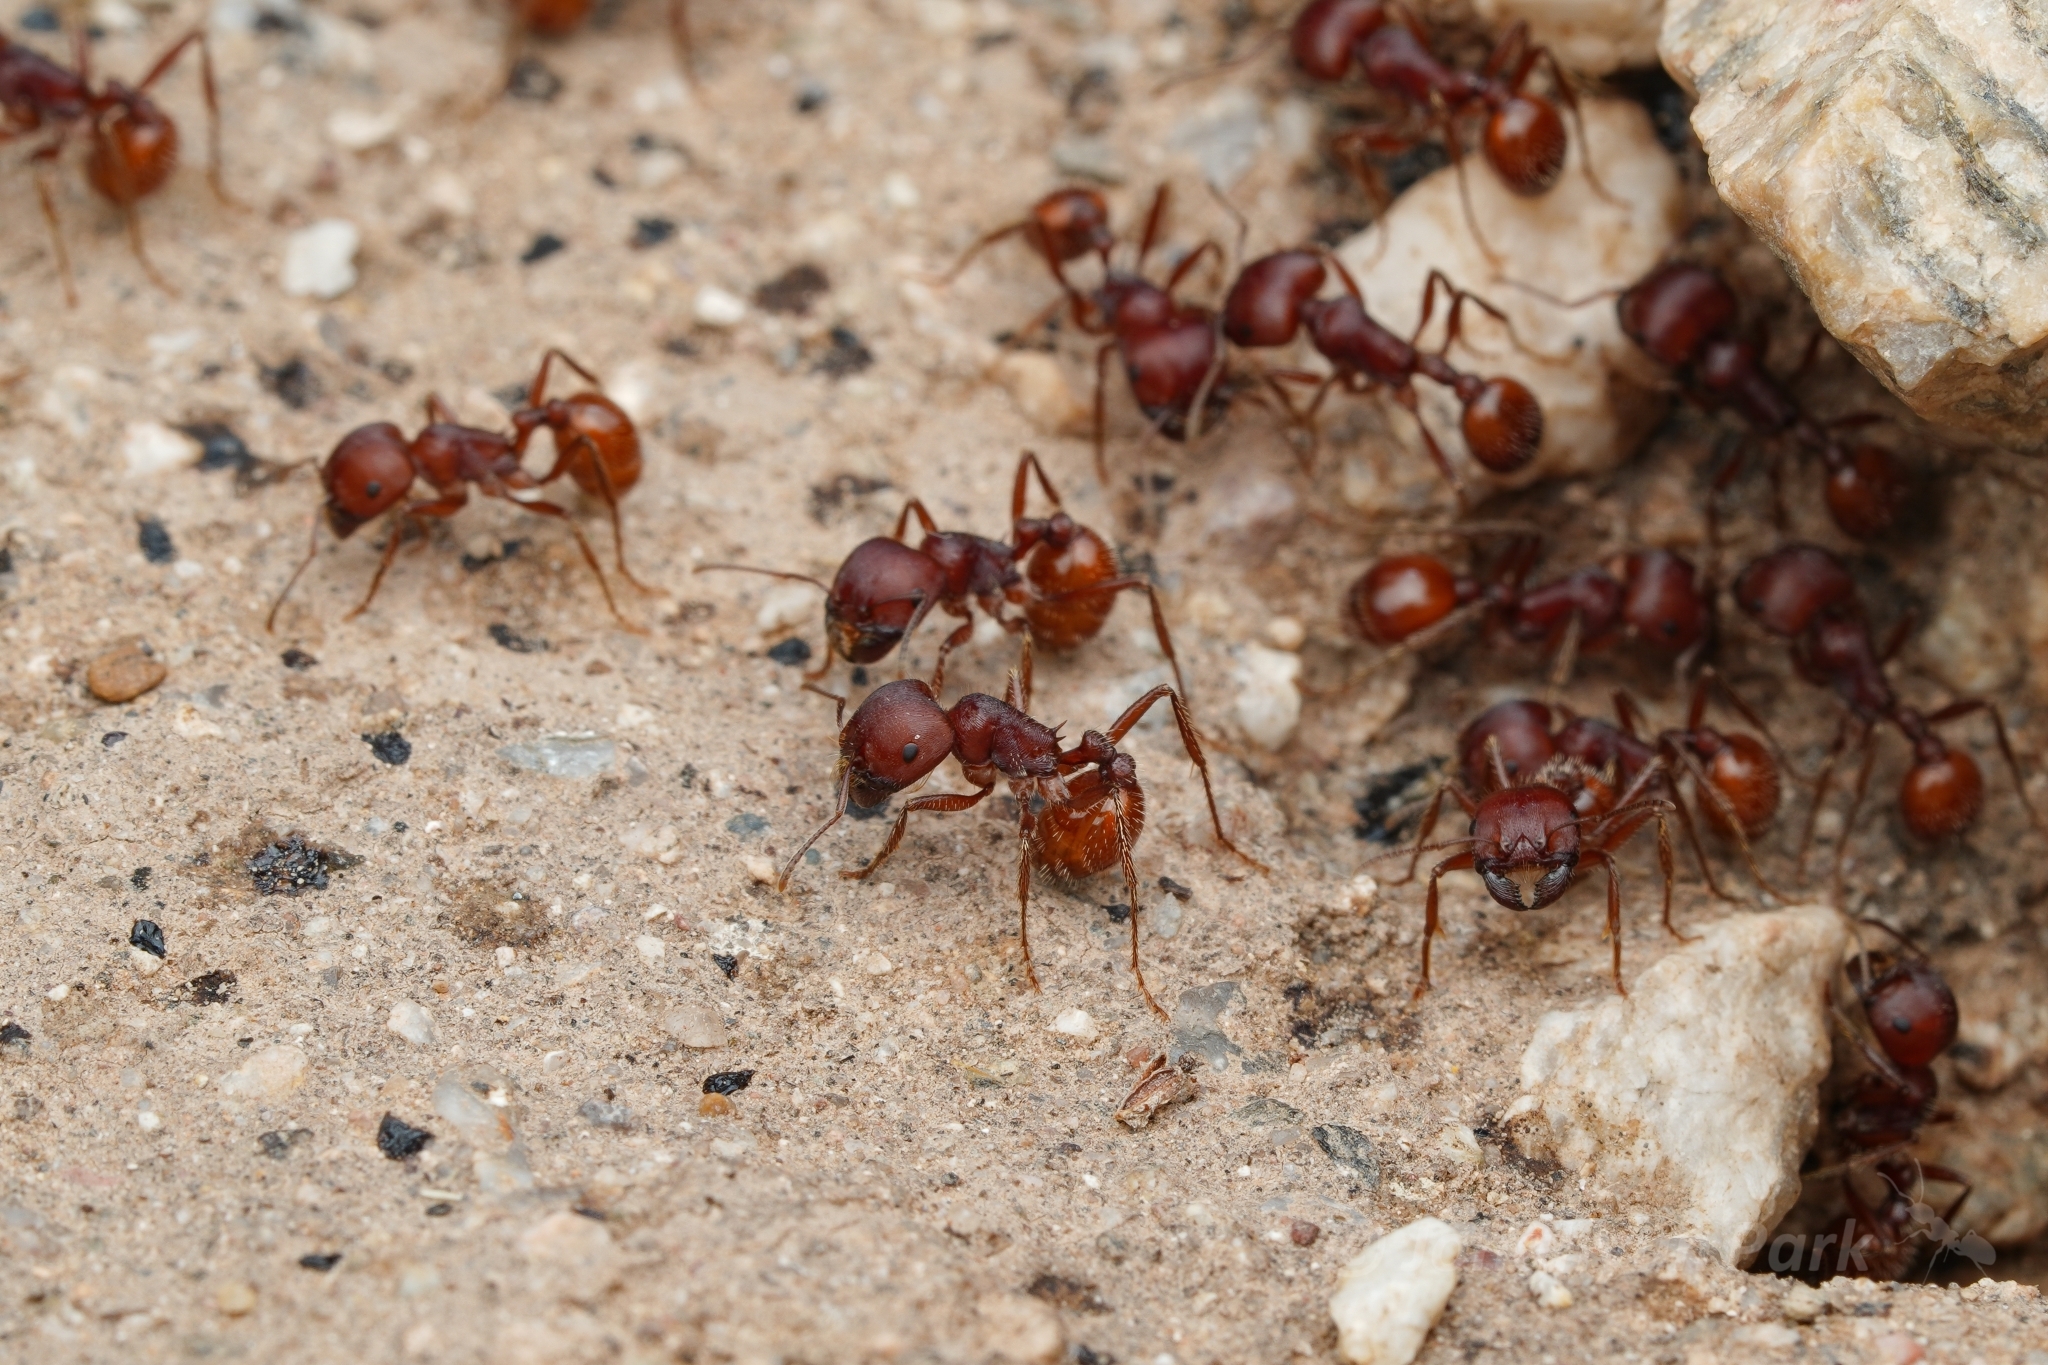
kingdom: Animalia
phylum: Arthropoda
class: Insecta
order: Hymenoptera
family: Formicidae
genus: Pogonomyrmex
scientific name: Pogonomyrmex barbatus
